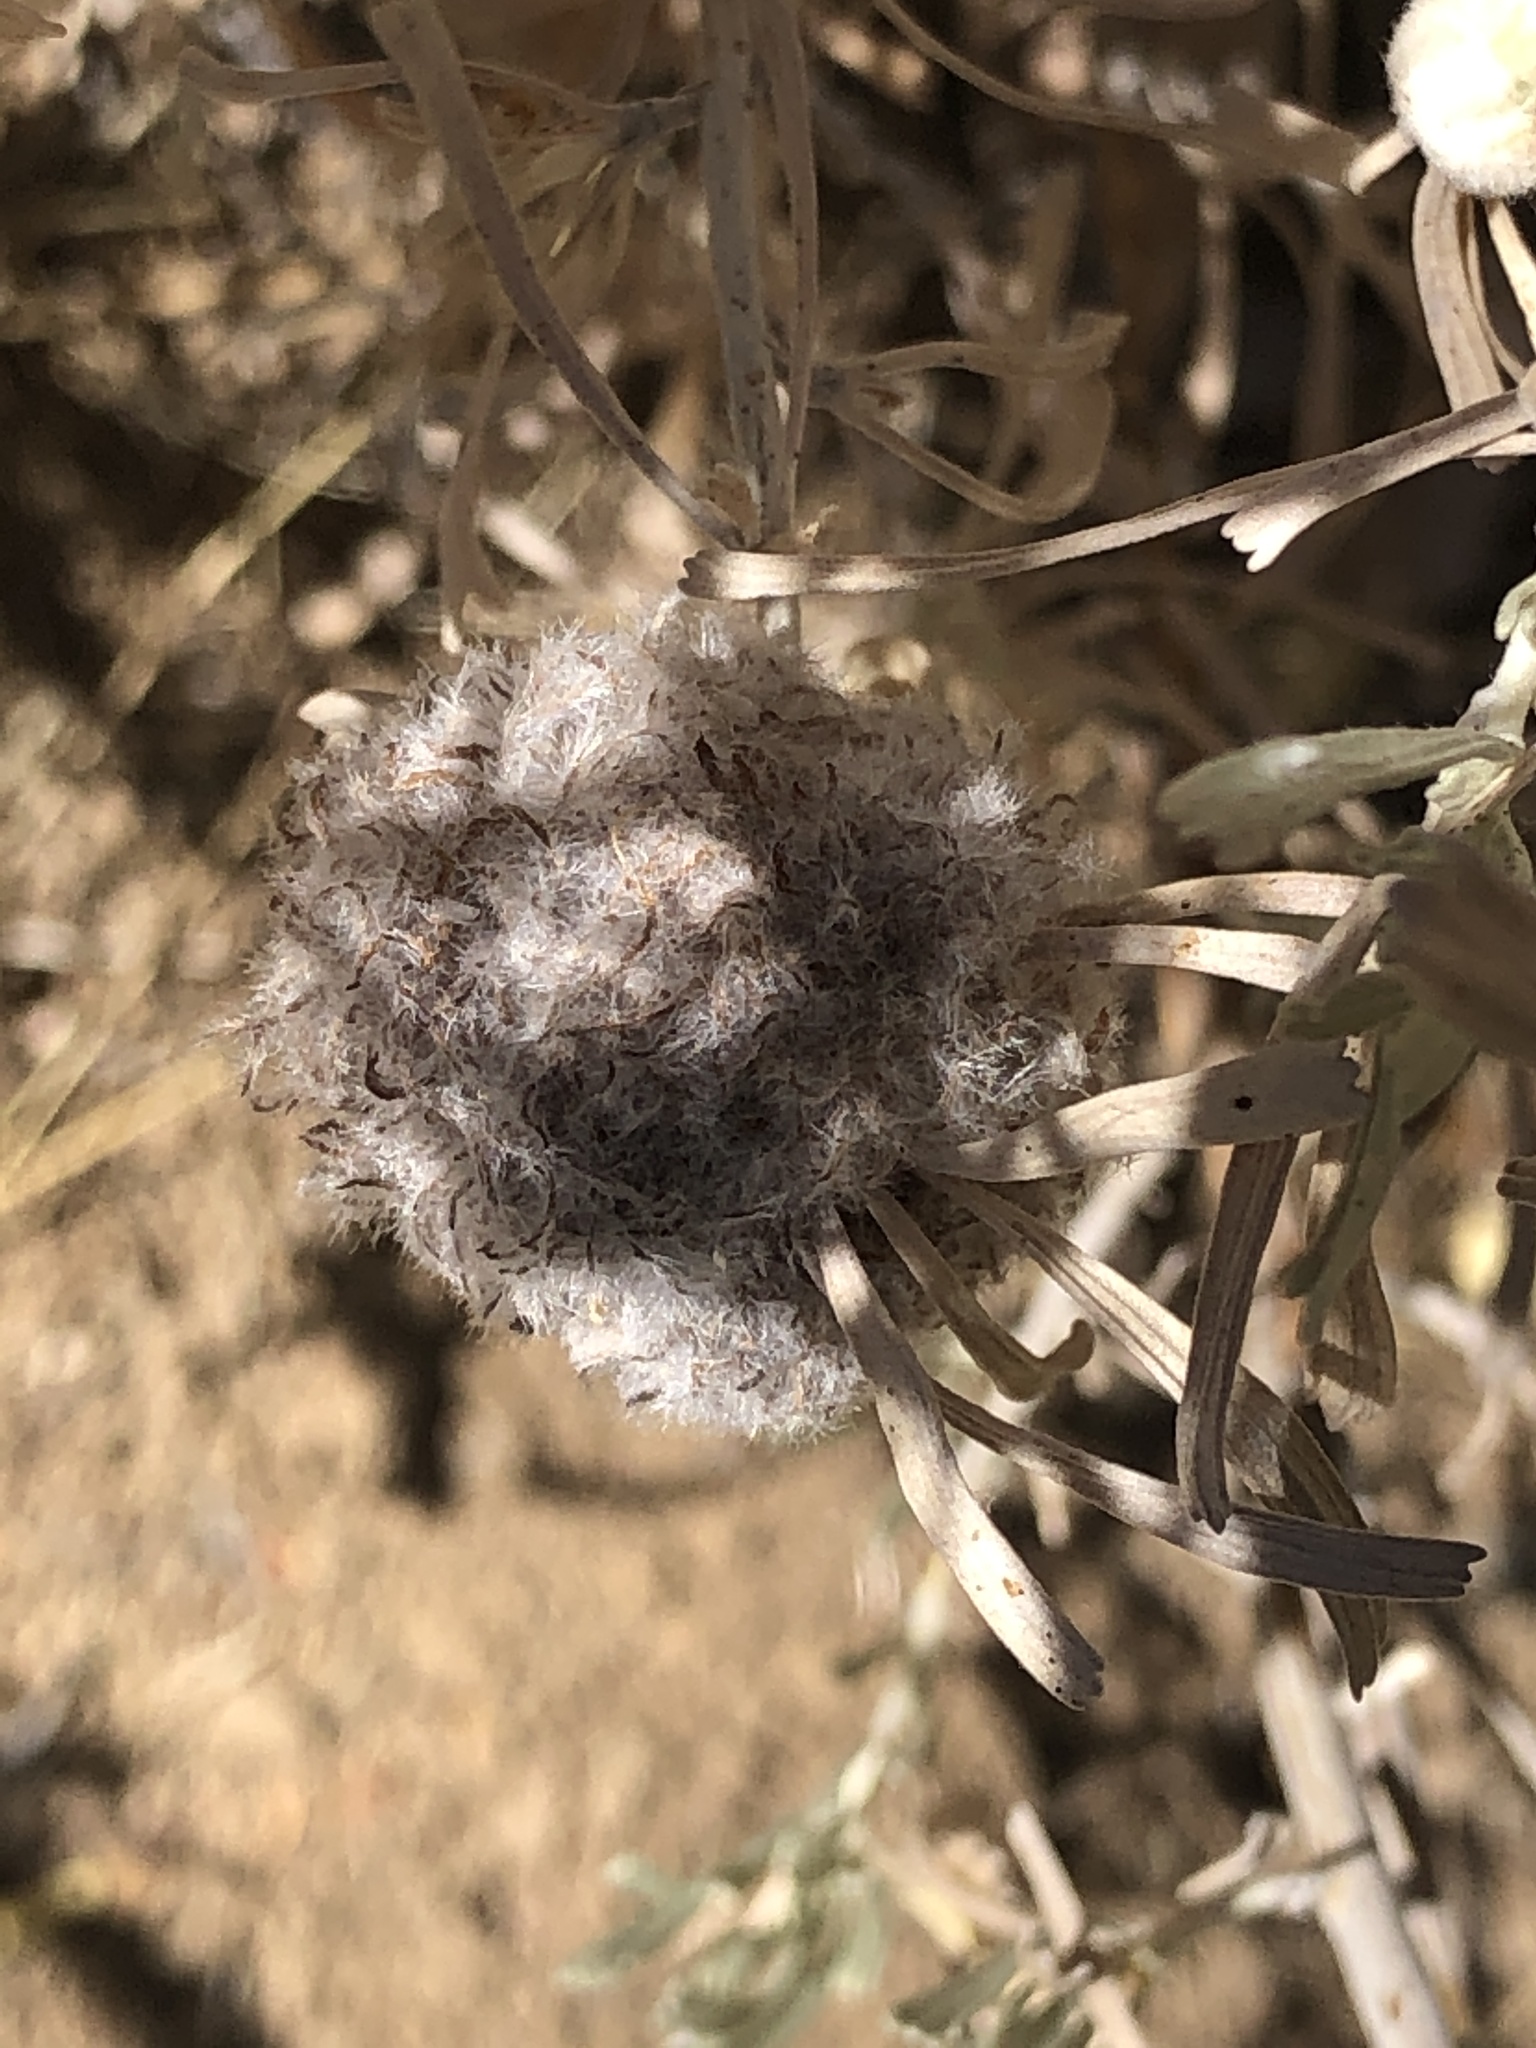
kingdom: Animalia
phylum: Arthropoda
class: Insecta
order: Diptera
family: Cecidomyiidae
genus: Rhopalomyia
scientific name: Rhopalomyia medusirrasa
